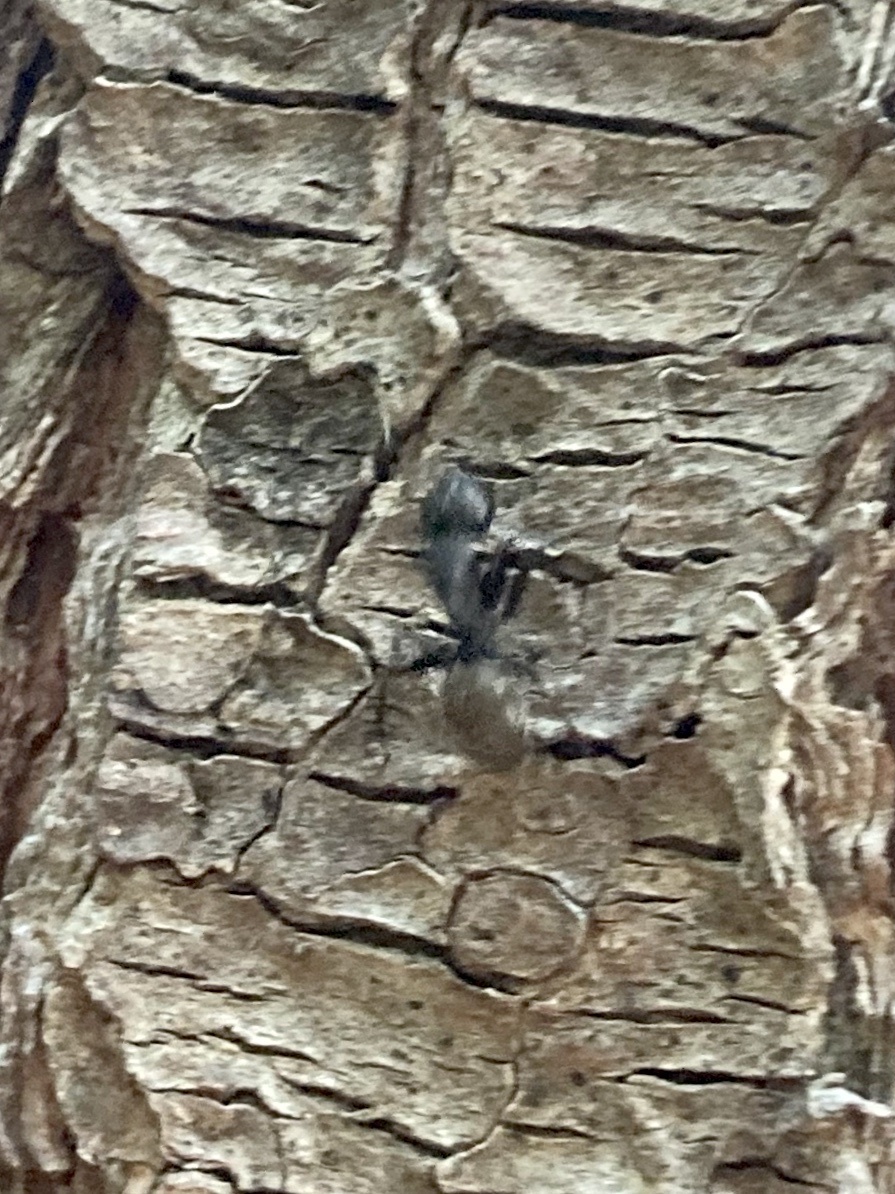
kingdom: Animalia
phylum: Arthropoda
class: Insecta
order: Hymenoptera
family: Formicidae
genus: Camponotus
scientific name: Camponotus pennsylvanicus
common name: Black carpenter ant
